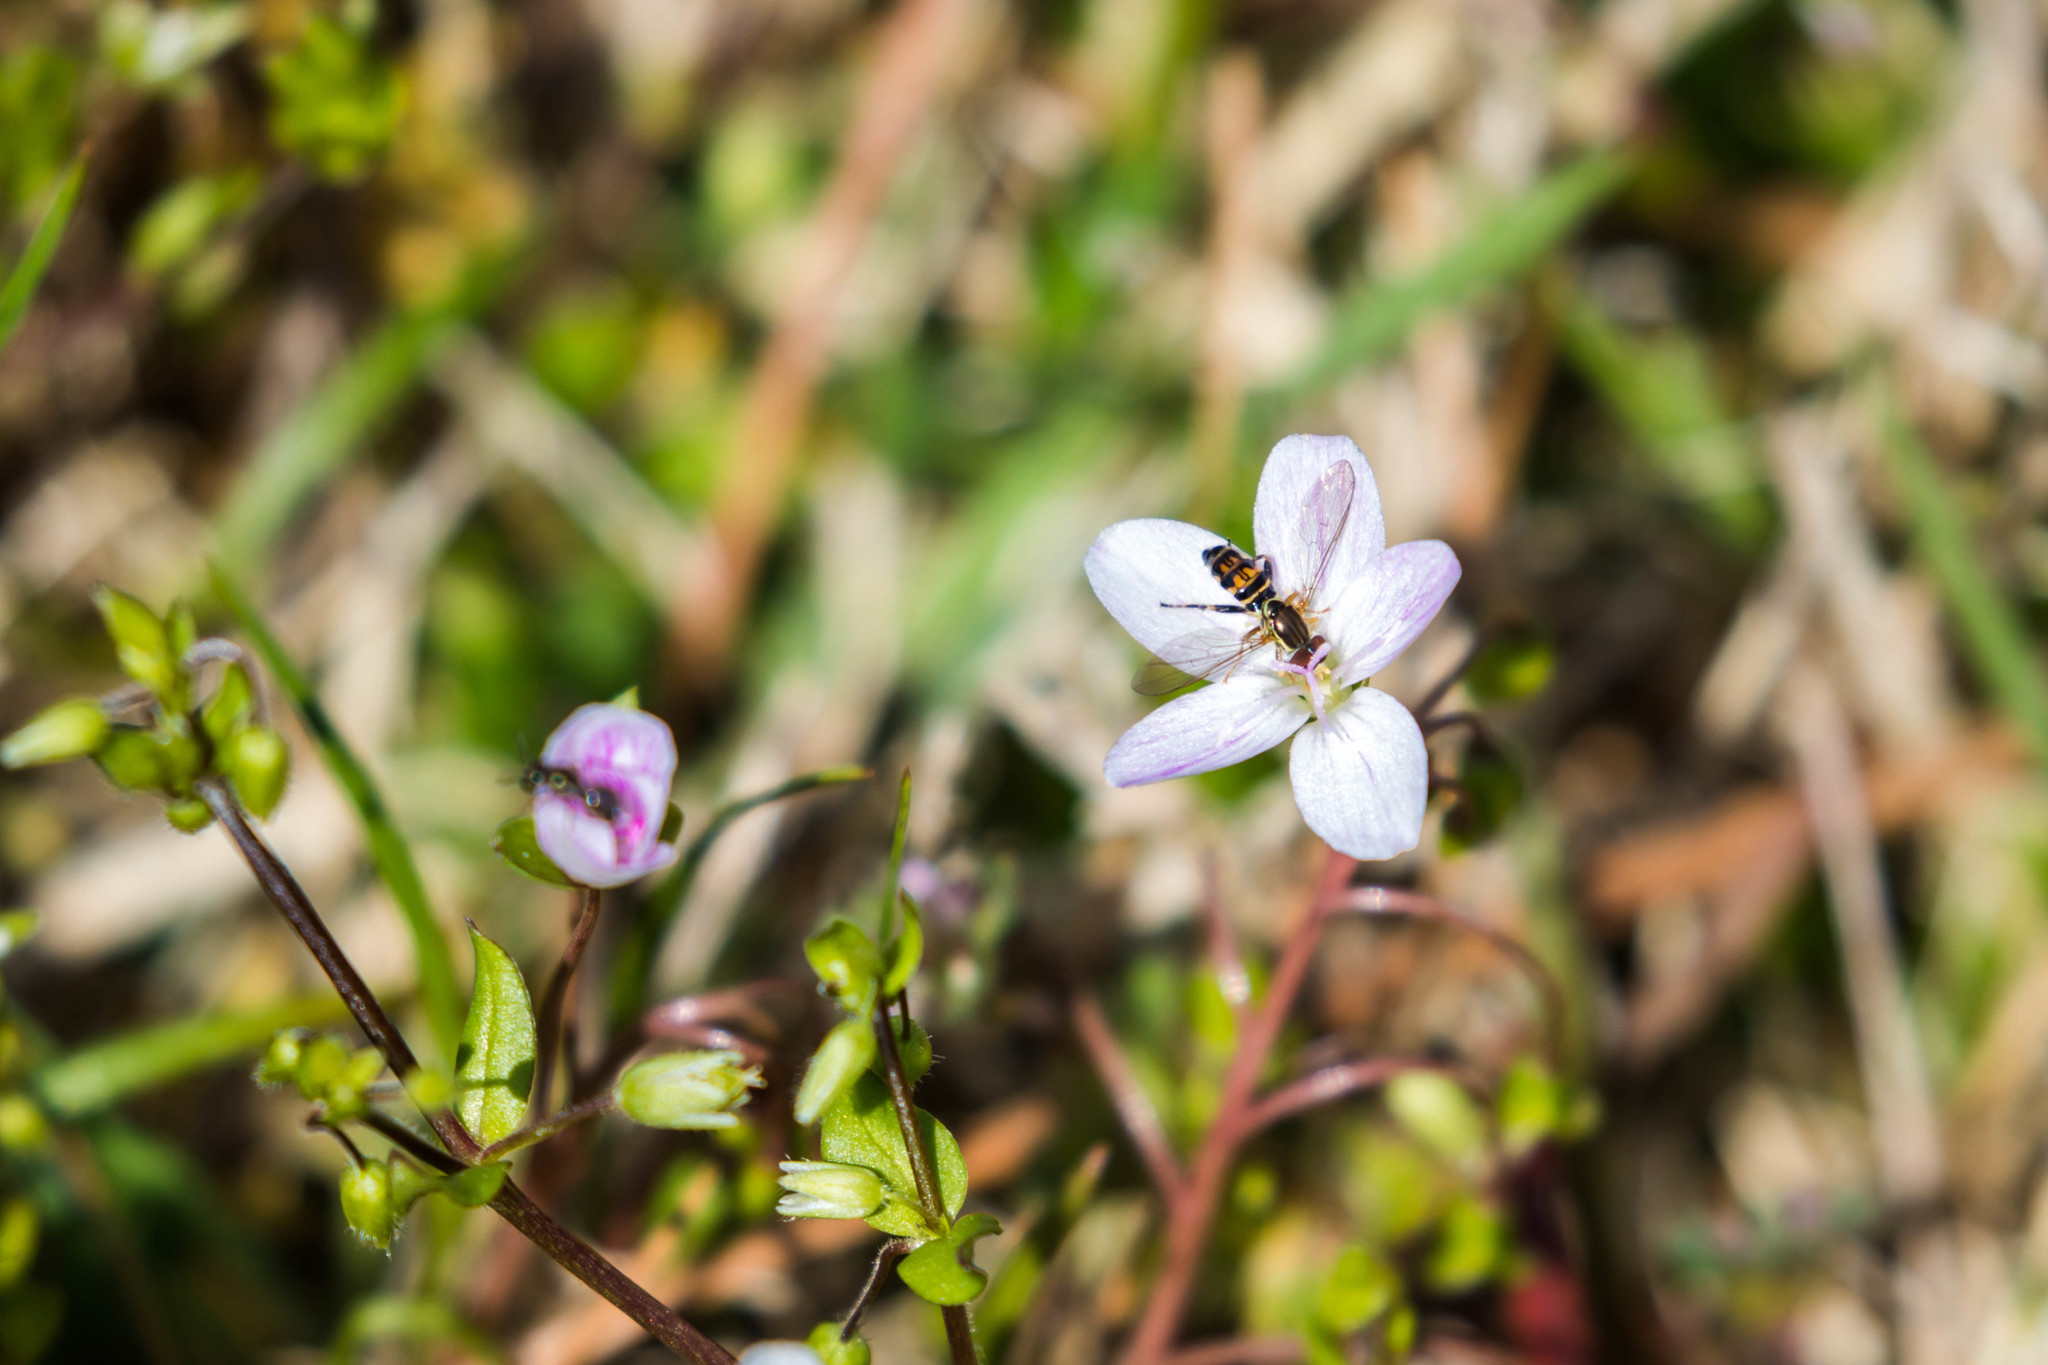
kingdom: Animalia
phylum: Arthropoda
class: Insecta
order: Diptera
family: Syrphidae
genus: Toxomerus
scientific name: Toxomerus geminatus
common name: Eastern calligrapher
